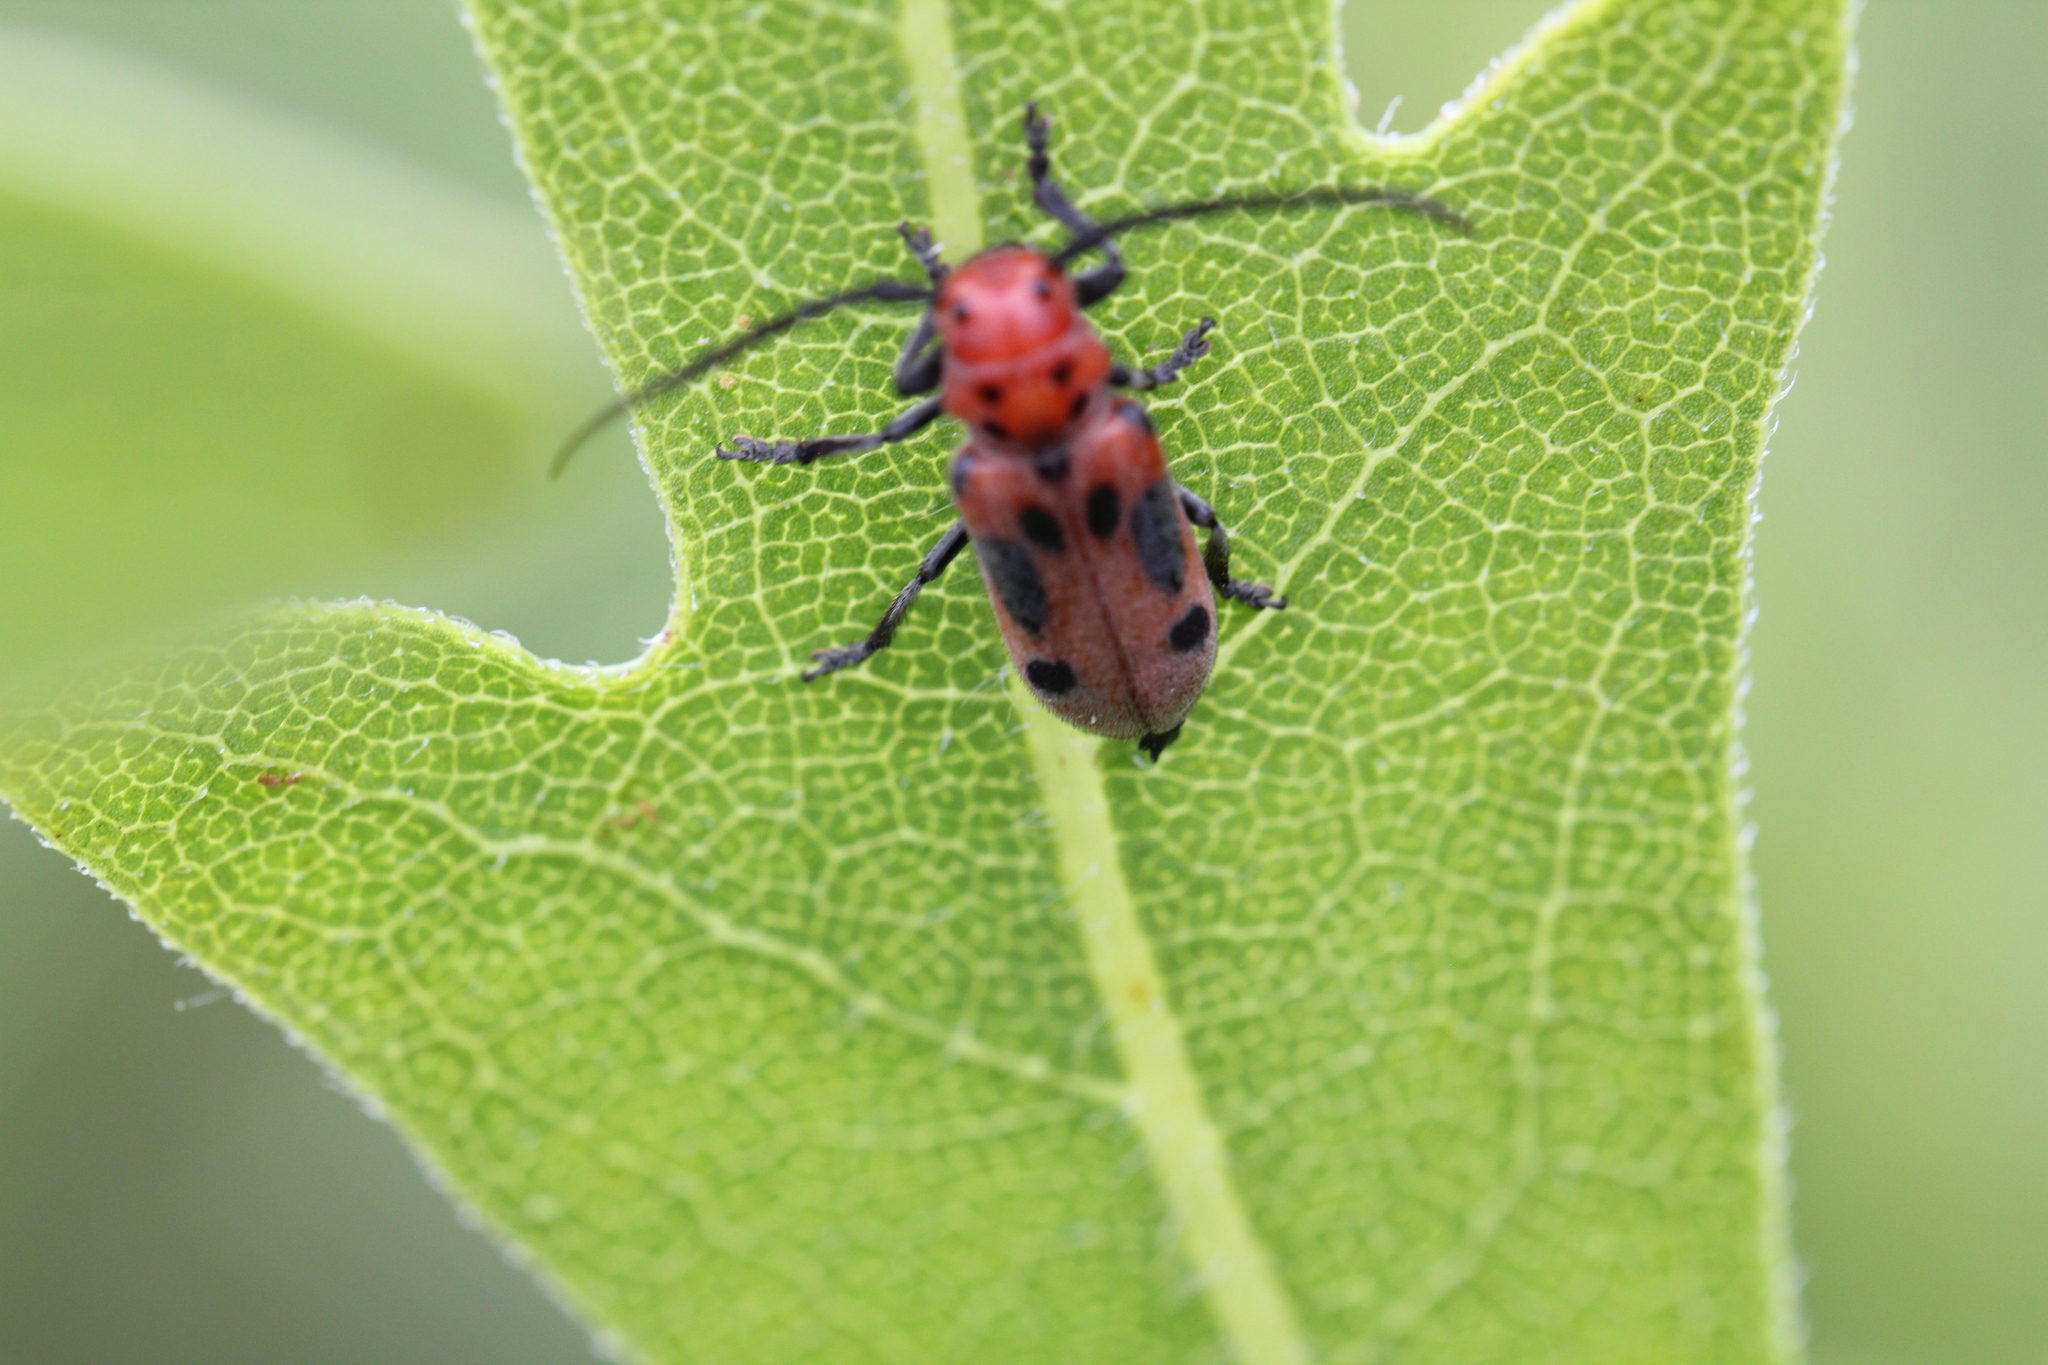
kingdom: Animalia
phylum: Arthropoda
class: Insecta
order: Coleoptera
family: Cerambycidae
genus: Tetraopes
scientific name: Tetraopes tetrophthalmus
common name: Red milkweed beetle
